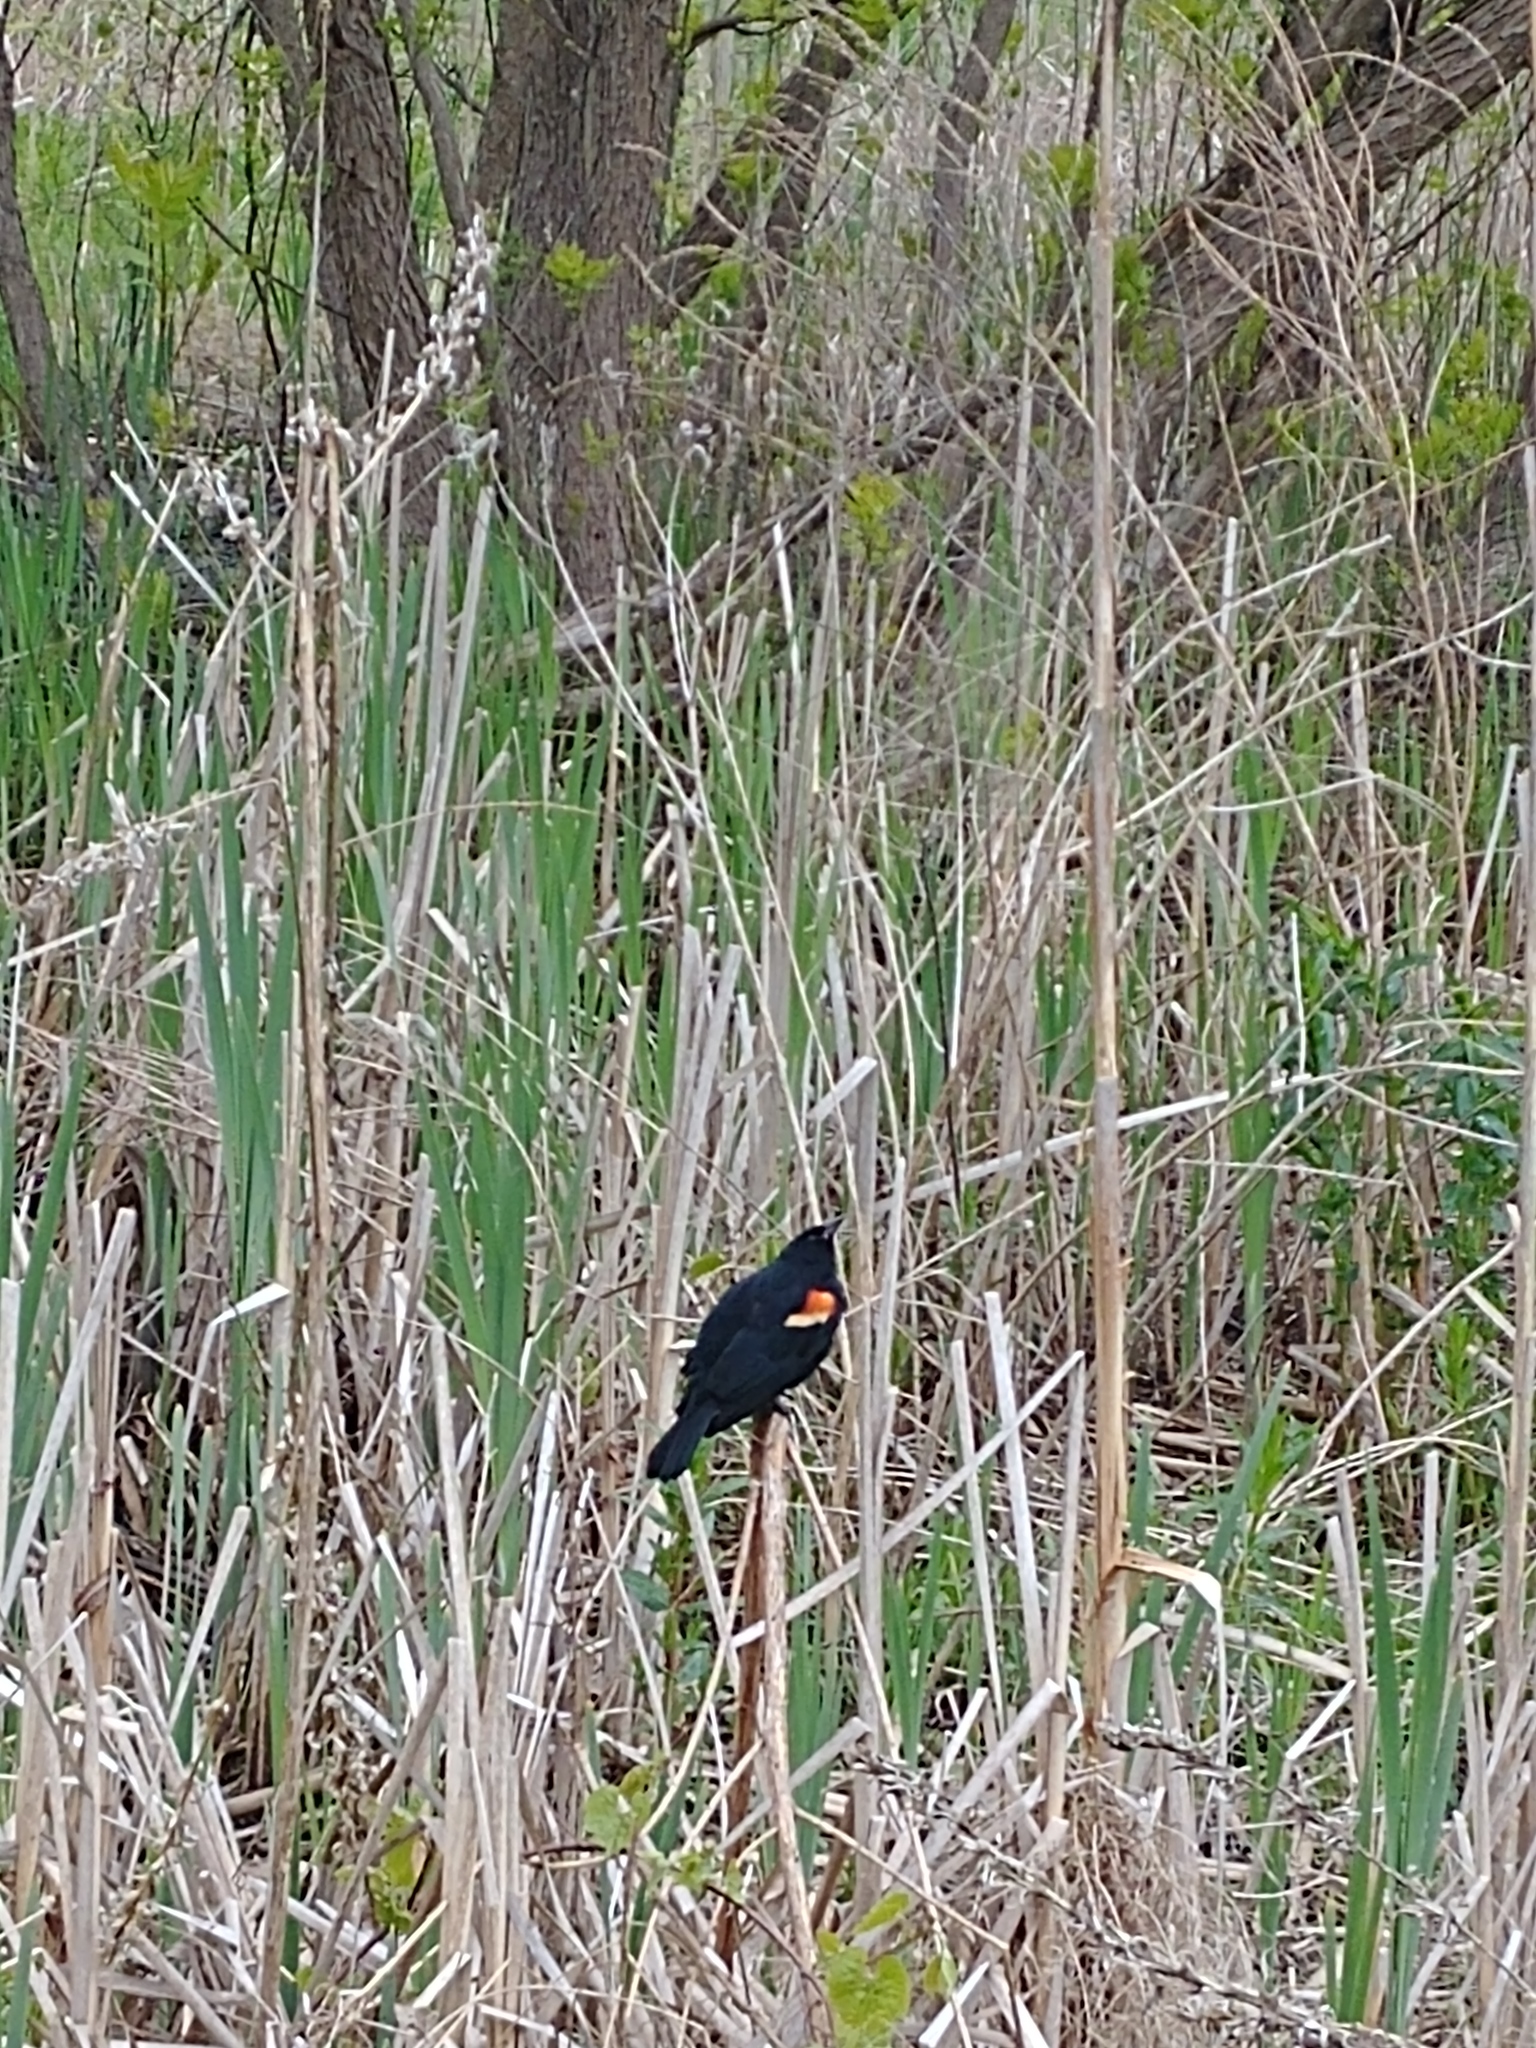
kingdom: Animalia
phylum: Chordata
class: Aves
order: Passeriformes
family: Icteridae
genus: Agelaius
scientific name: Agelaius phoeniceus
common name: Red-winged blackbird
